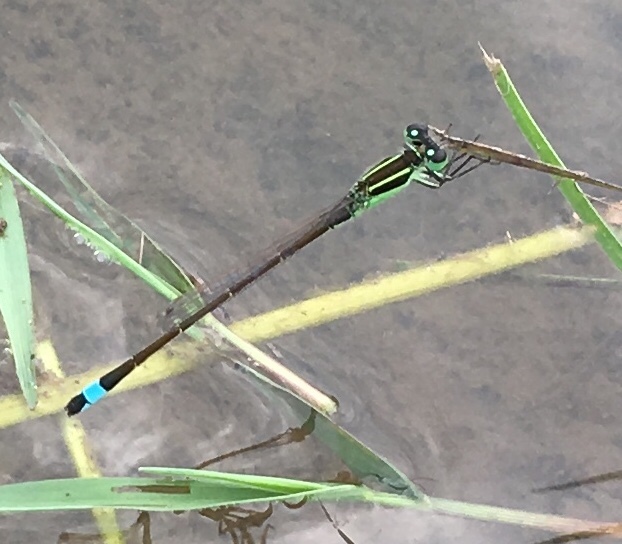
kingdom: Animalia
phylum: Arthropoda
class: Insecta
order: Odonata
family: Coenagrionidae
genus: Ischnura
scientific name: Ischnura ramburii
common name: Rambur's forktail
